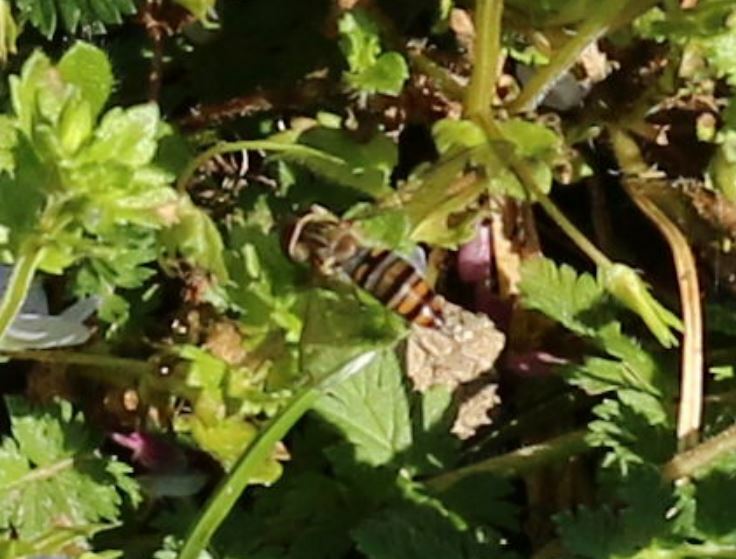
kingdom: Animalia
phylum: Arthropoda
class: Insecta
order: Diptera
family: Syrphidae
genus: Episyrphus
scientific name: Episyrphus balteatus
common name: Marmalade hoverfly
